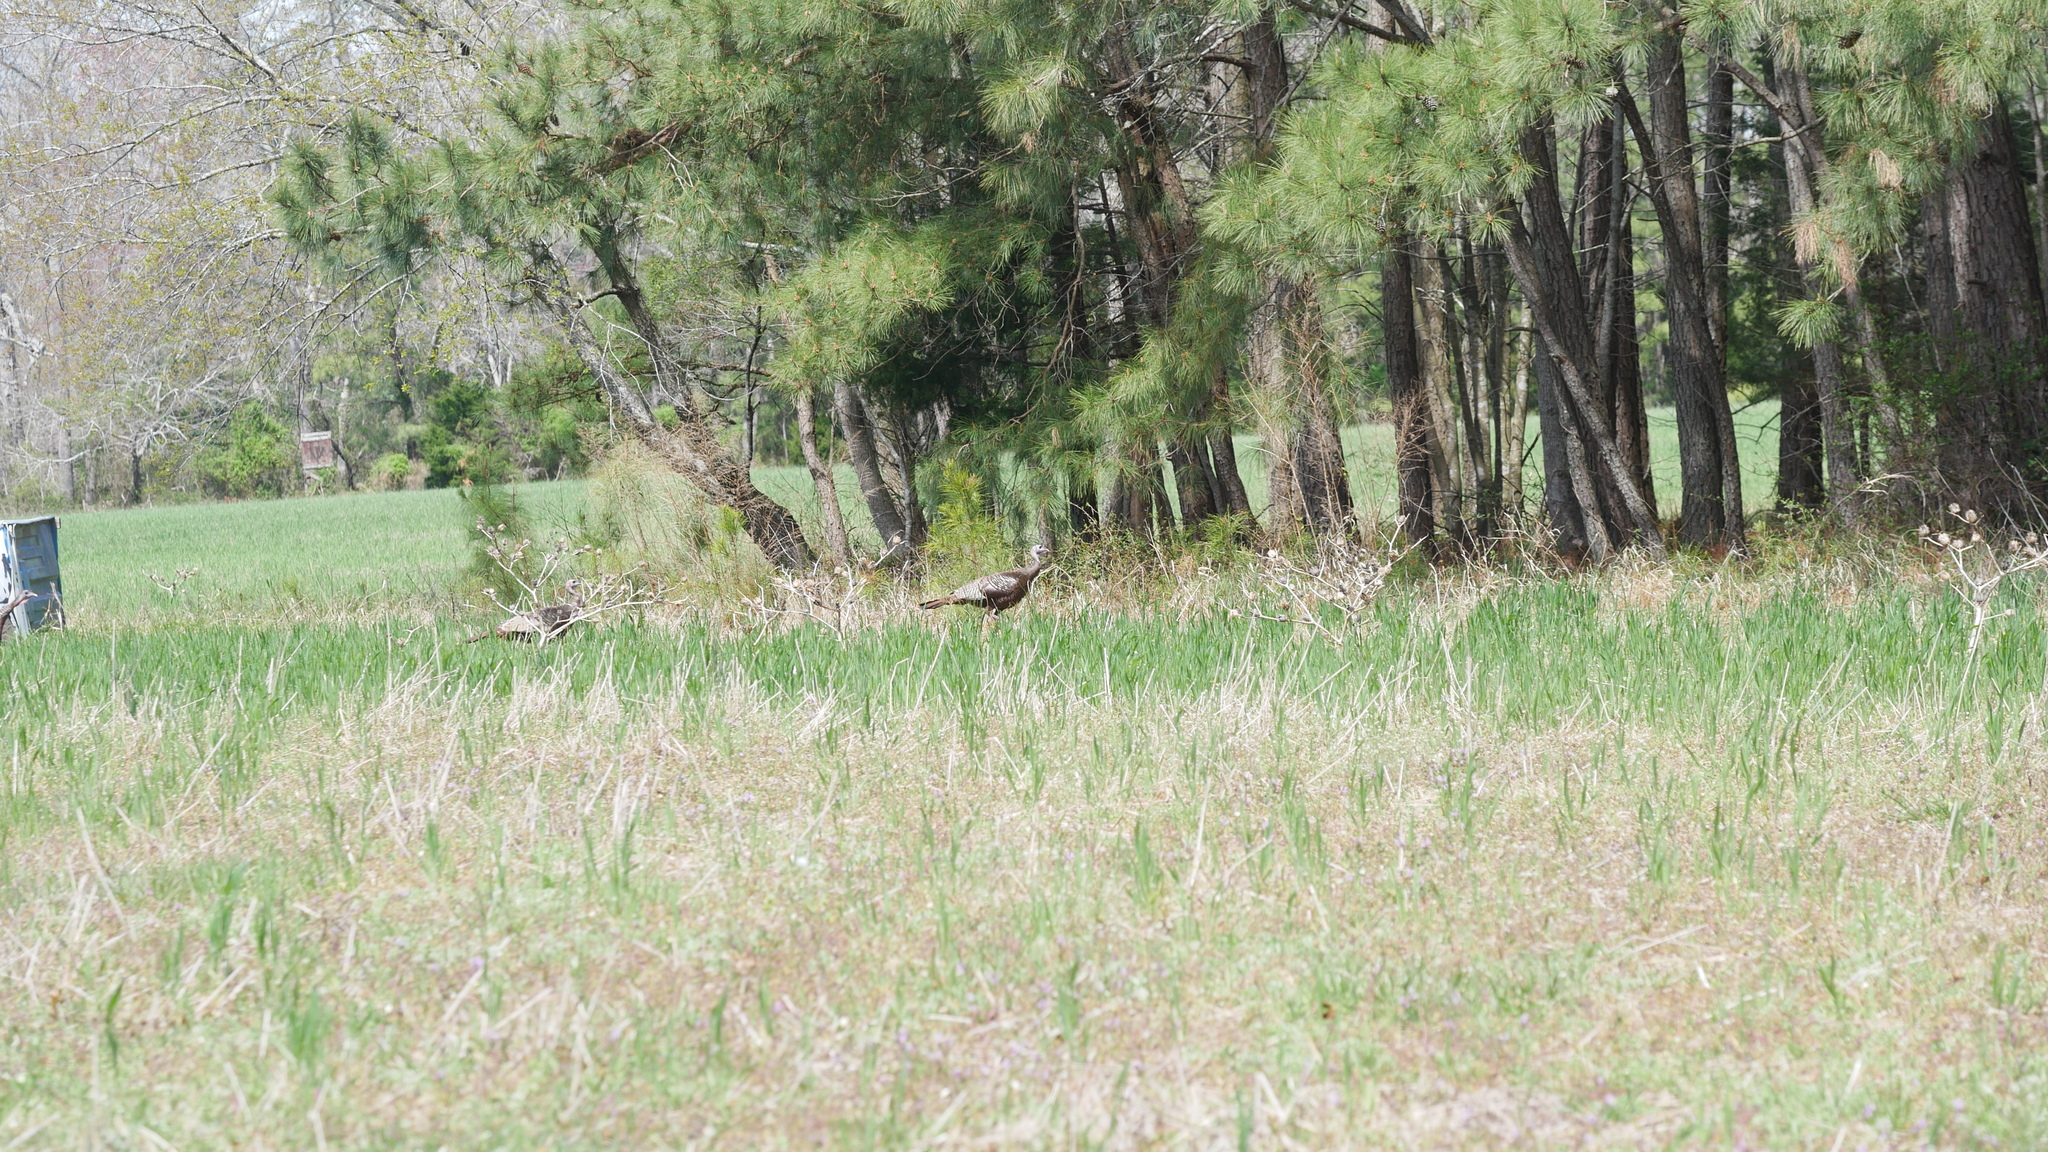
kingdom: Animalia
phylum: Chordata
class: Aves
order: Galliformes
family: Phasianidae
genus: Meleagris
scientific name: Meleagris gallopavo
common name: Wild turkey
